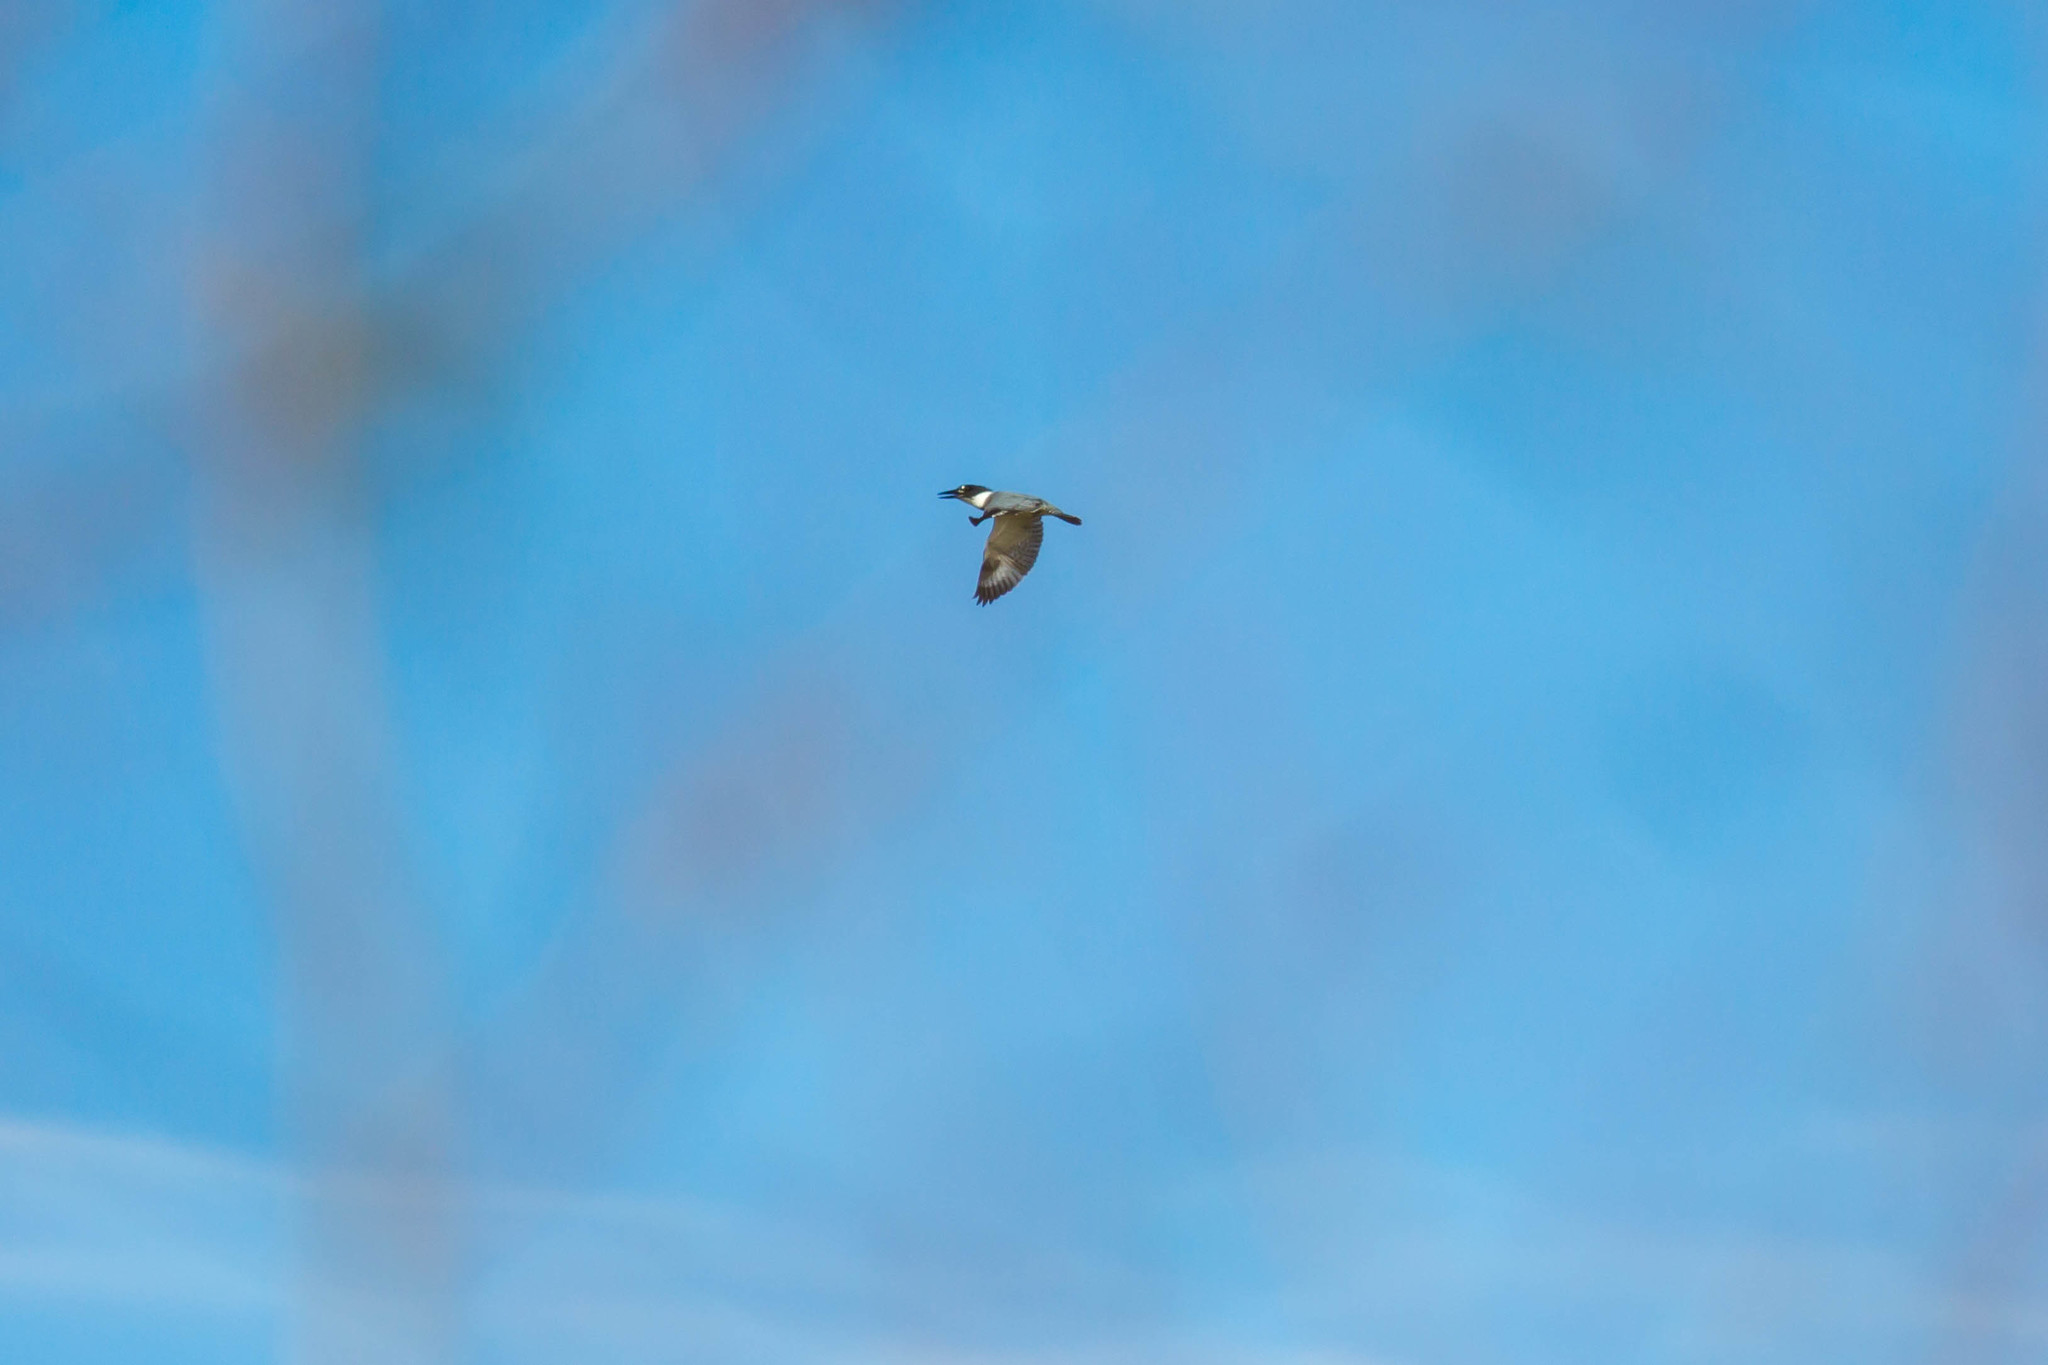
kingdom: Animalia
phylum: Chordata
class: Aves
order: Coraciiformes
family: Alcedinidae
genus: Megaceryle
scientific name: Megaceryle alcyon
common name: Belted kingfisher
